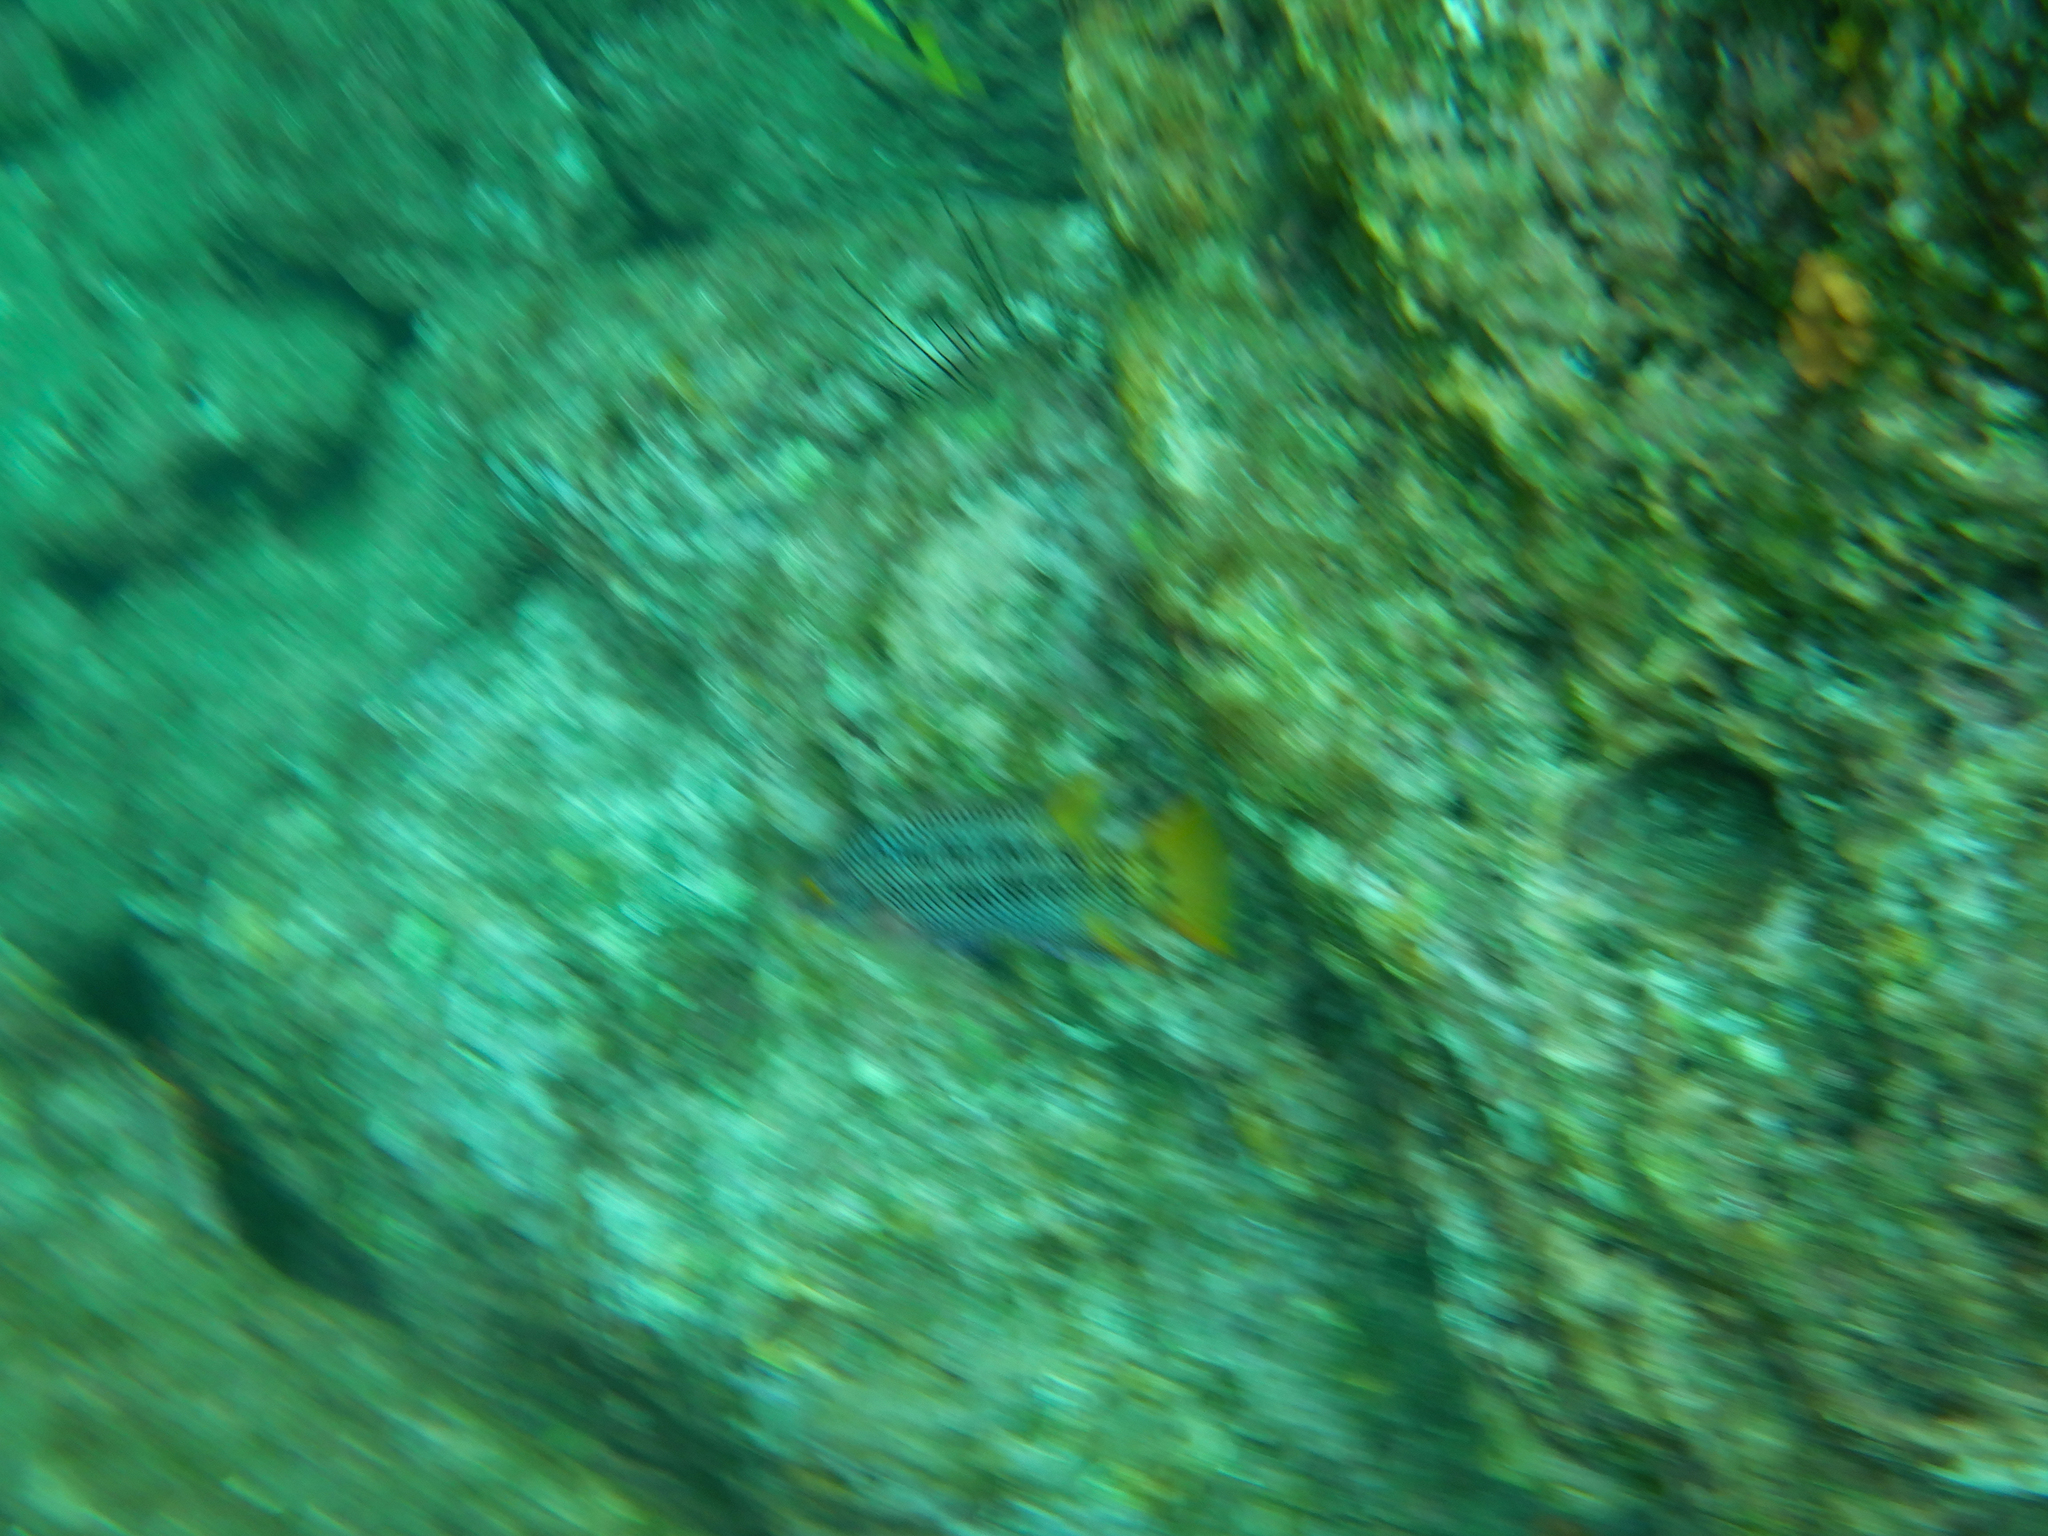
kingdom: Animalia
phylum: Chordata
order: Perciformes
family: Labridae
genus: Bodianus
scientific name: Bodianus diplotaenia
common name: Mexican hogfish
